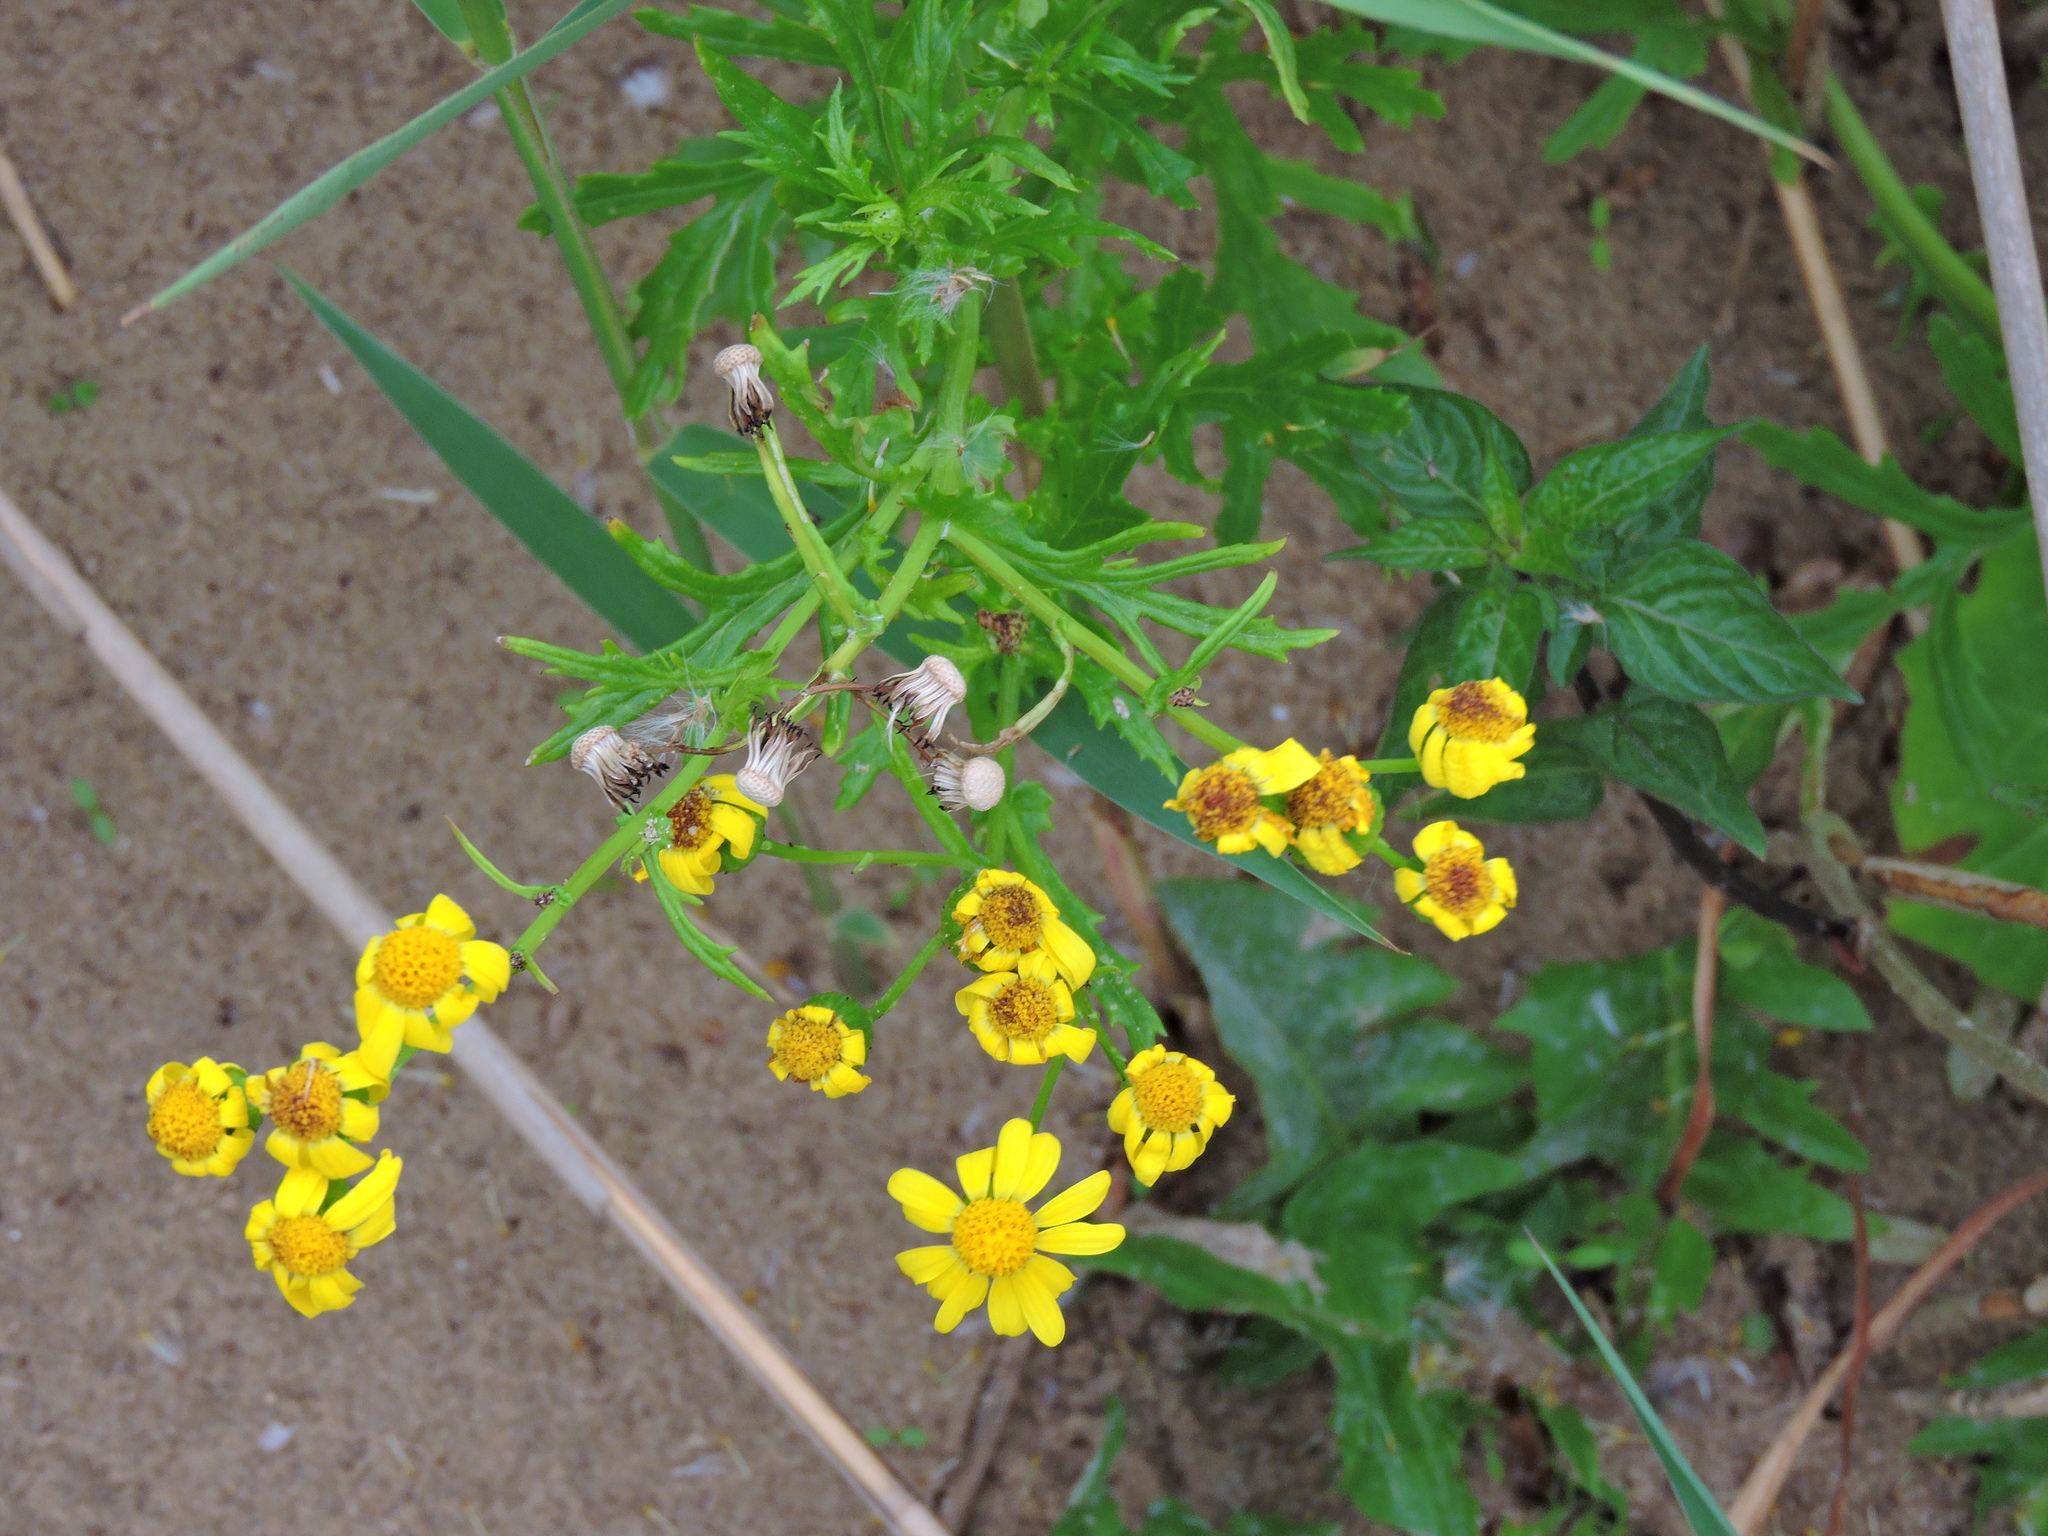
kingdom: Plantae
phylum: Tracheophyta
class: Magnoliopsida
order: Asterales
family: Asteraceae
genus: Senecio
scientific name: Senecio squalidus
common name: Oxford ragwort
